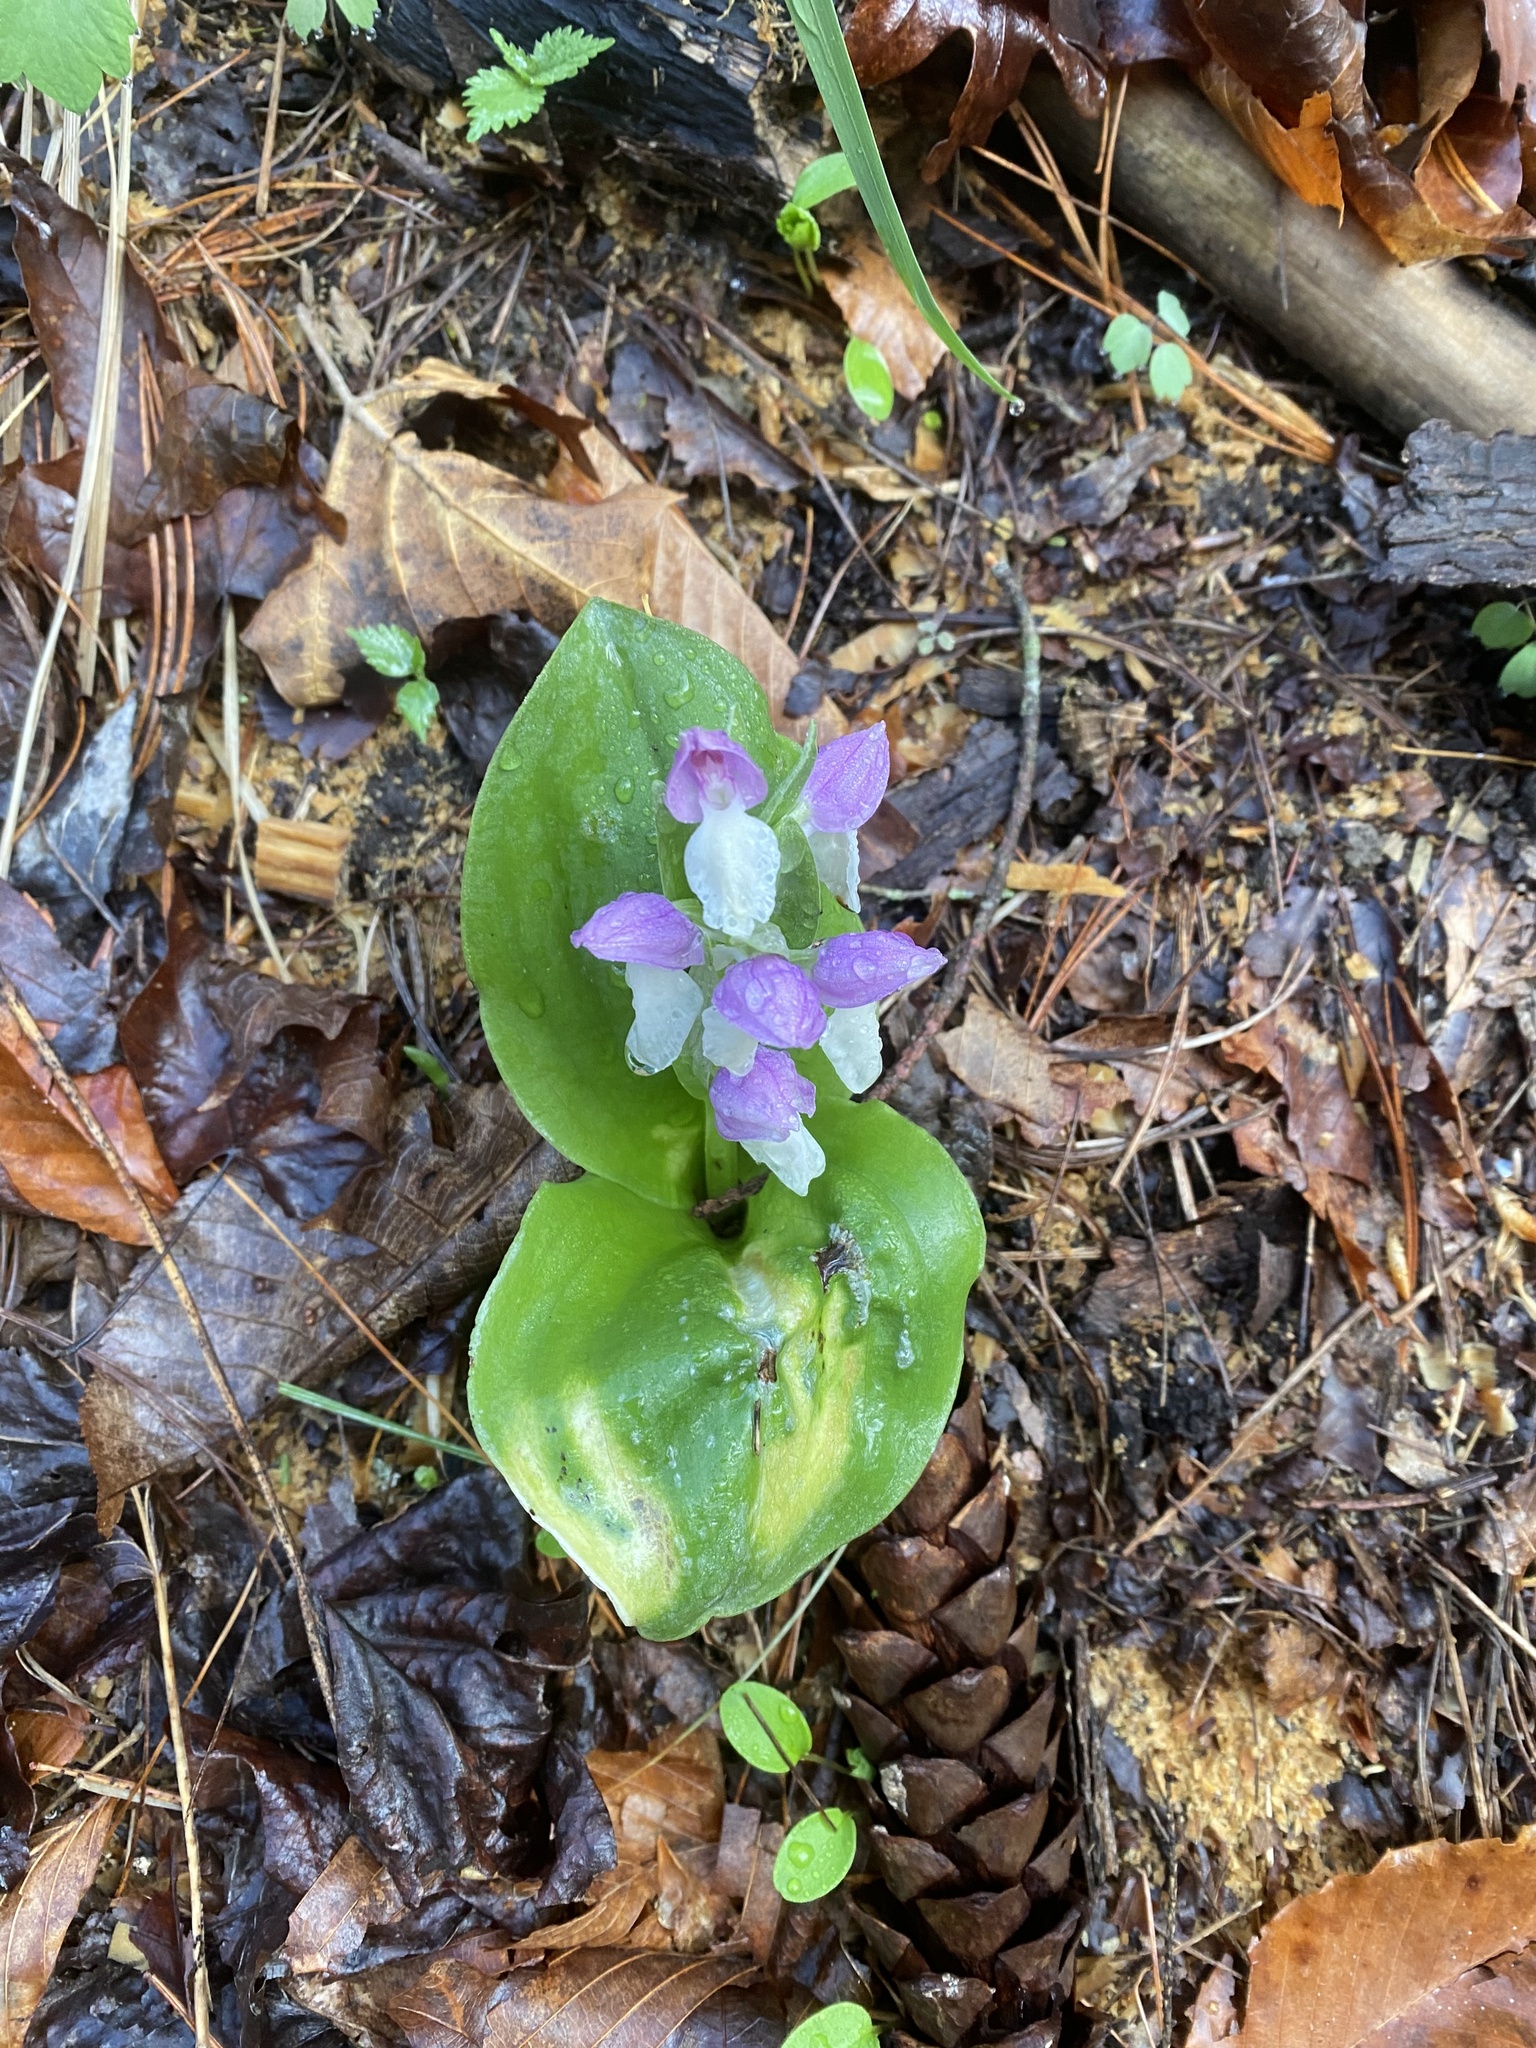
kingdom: Plantae
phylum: Tracheophyta
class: Liliopsida
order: Asparagales
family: Orchidaceae
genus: Galearis
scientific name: Galearis spectabilis
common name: Purple-hooded orchis
